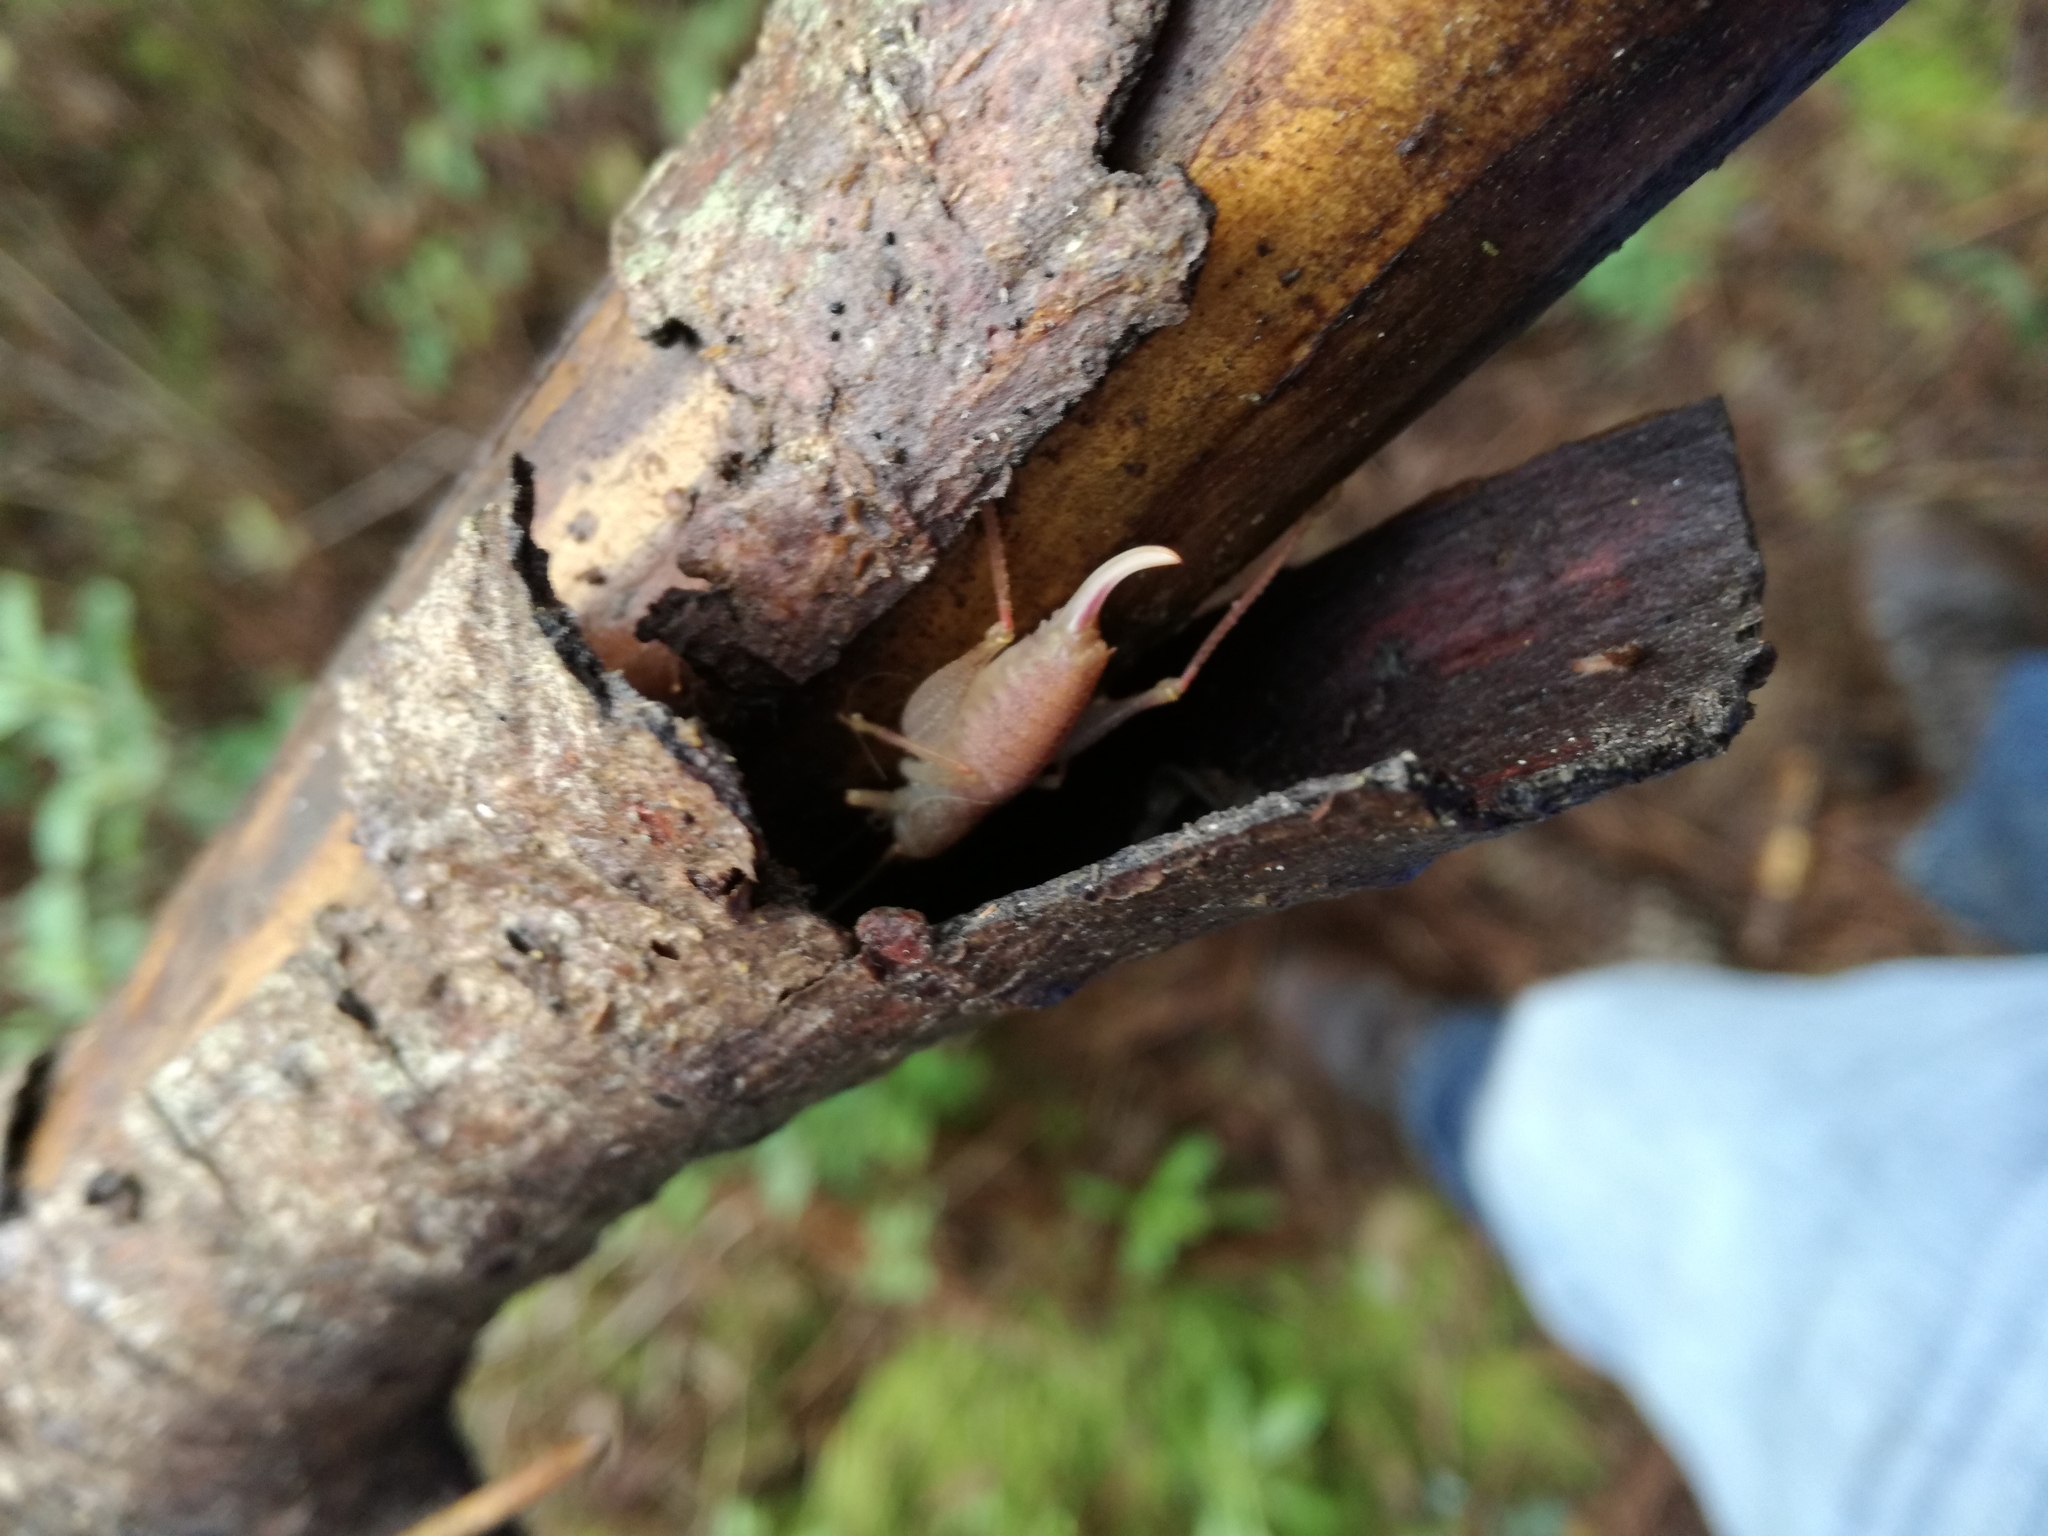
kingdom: Animalia
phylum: Arthropoda
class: Insecta
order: Orthoptera
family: Tettigoniidae
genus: Cyrtaspis
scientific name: Cyrtaspis scutata
